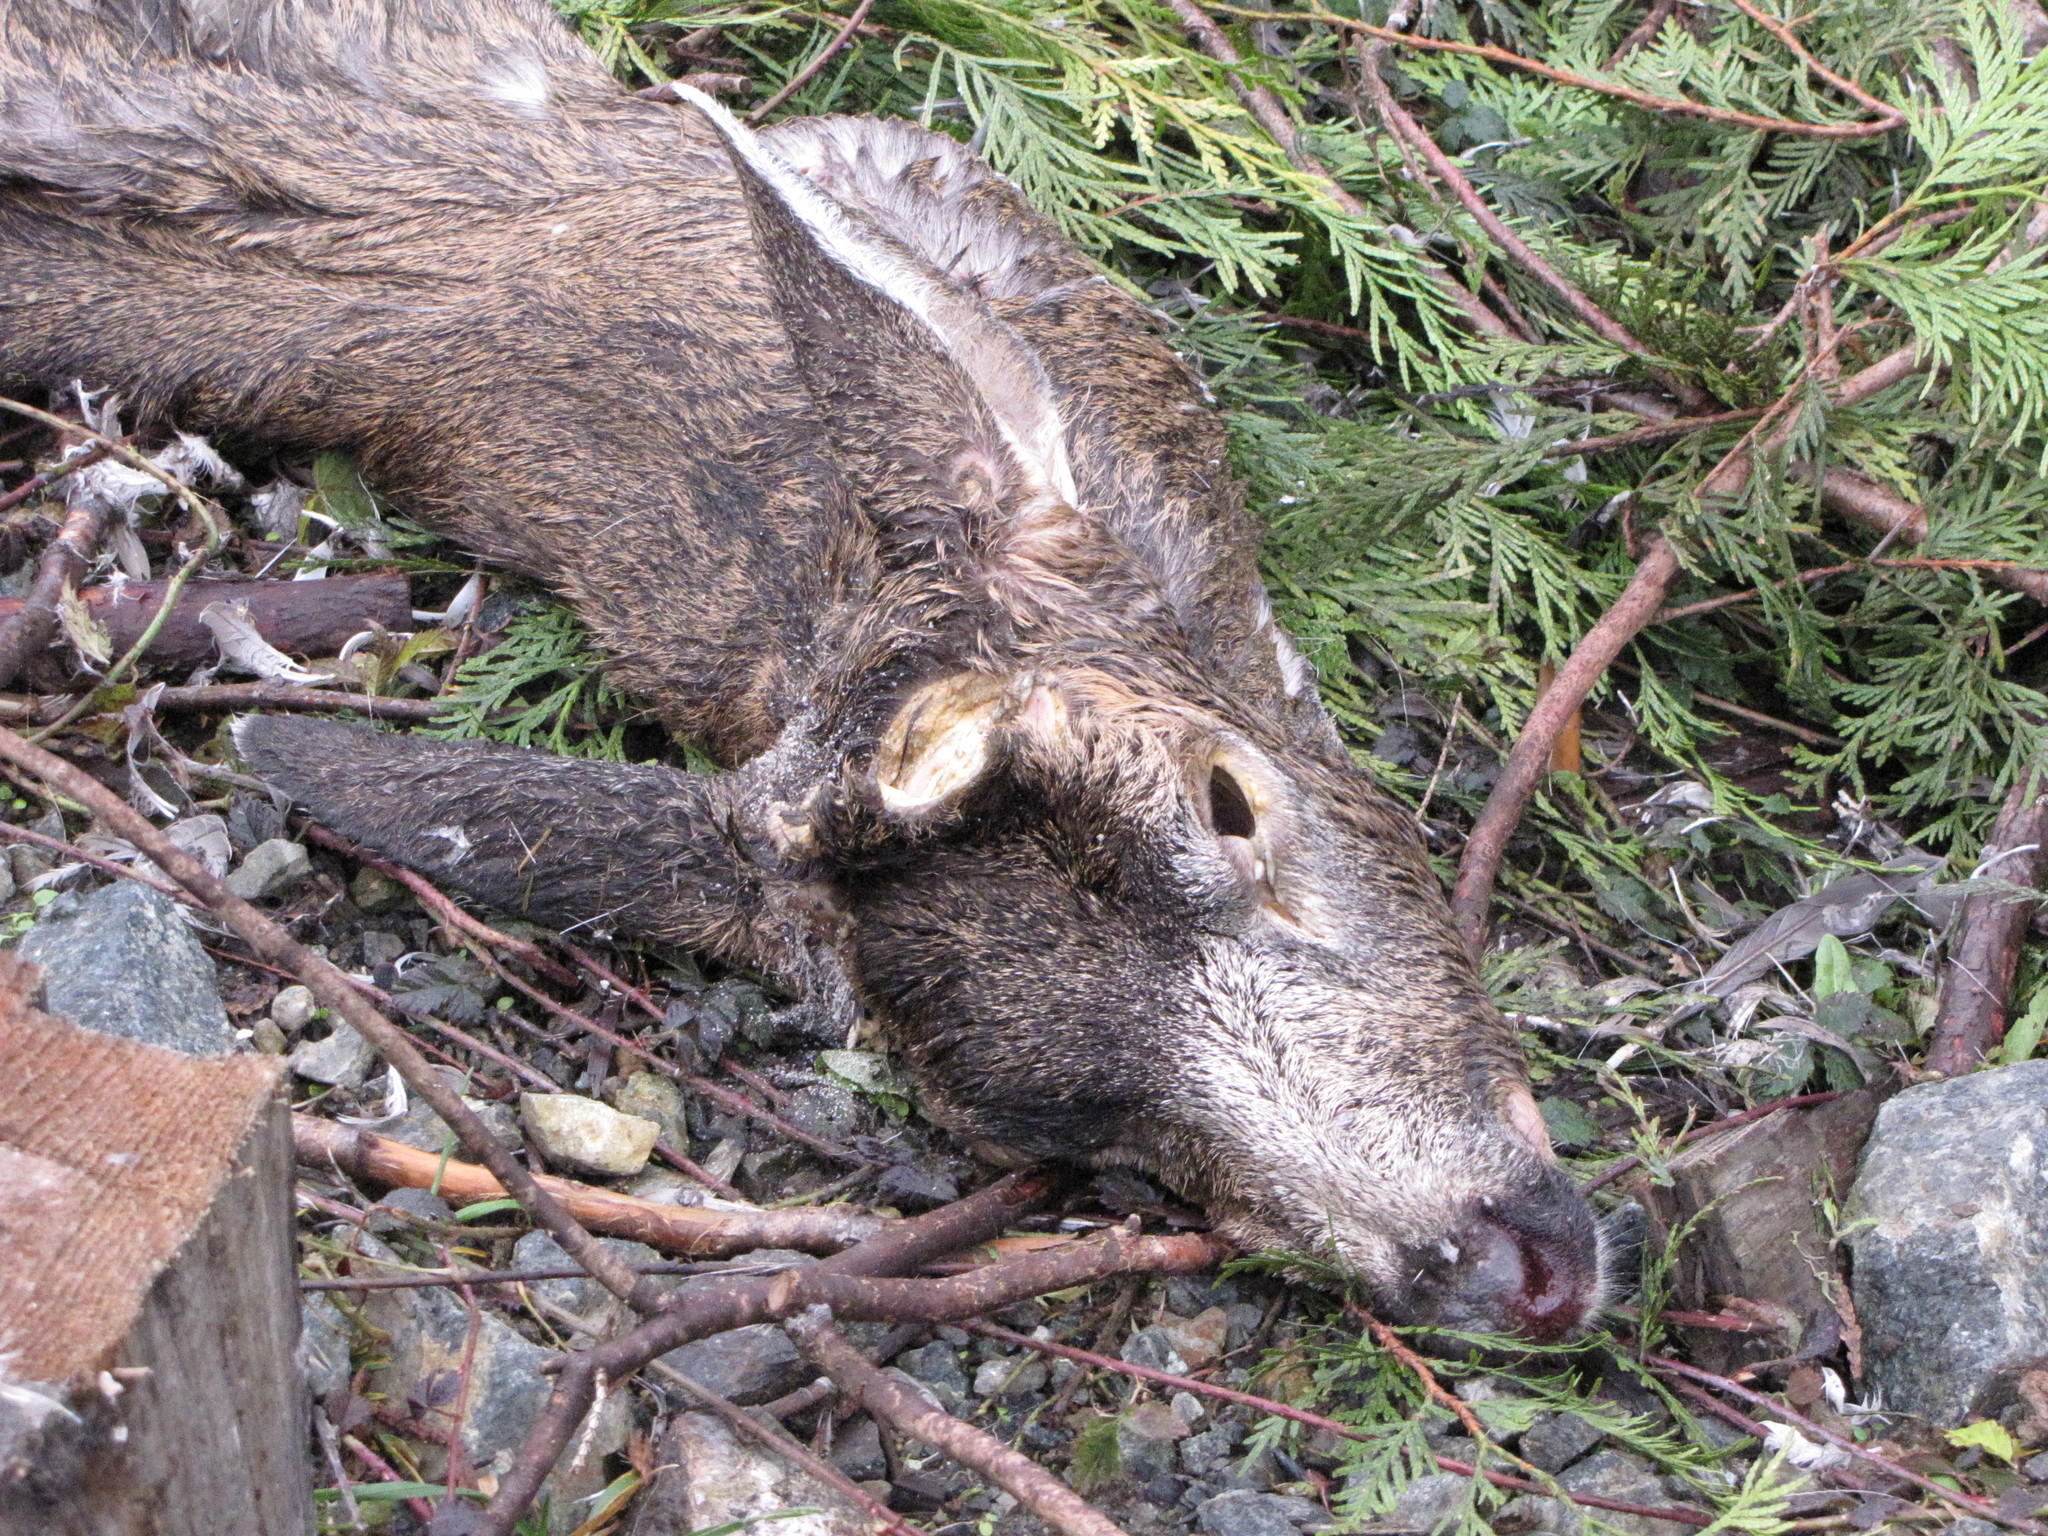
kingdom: Animalia
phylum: Chordata
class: Mammalia
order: Artiodactyla
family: Cervidae
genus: Odocoileus
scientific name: Odocoileus hemionus
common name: Mule deer
